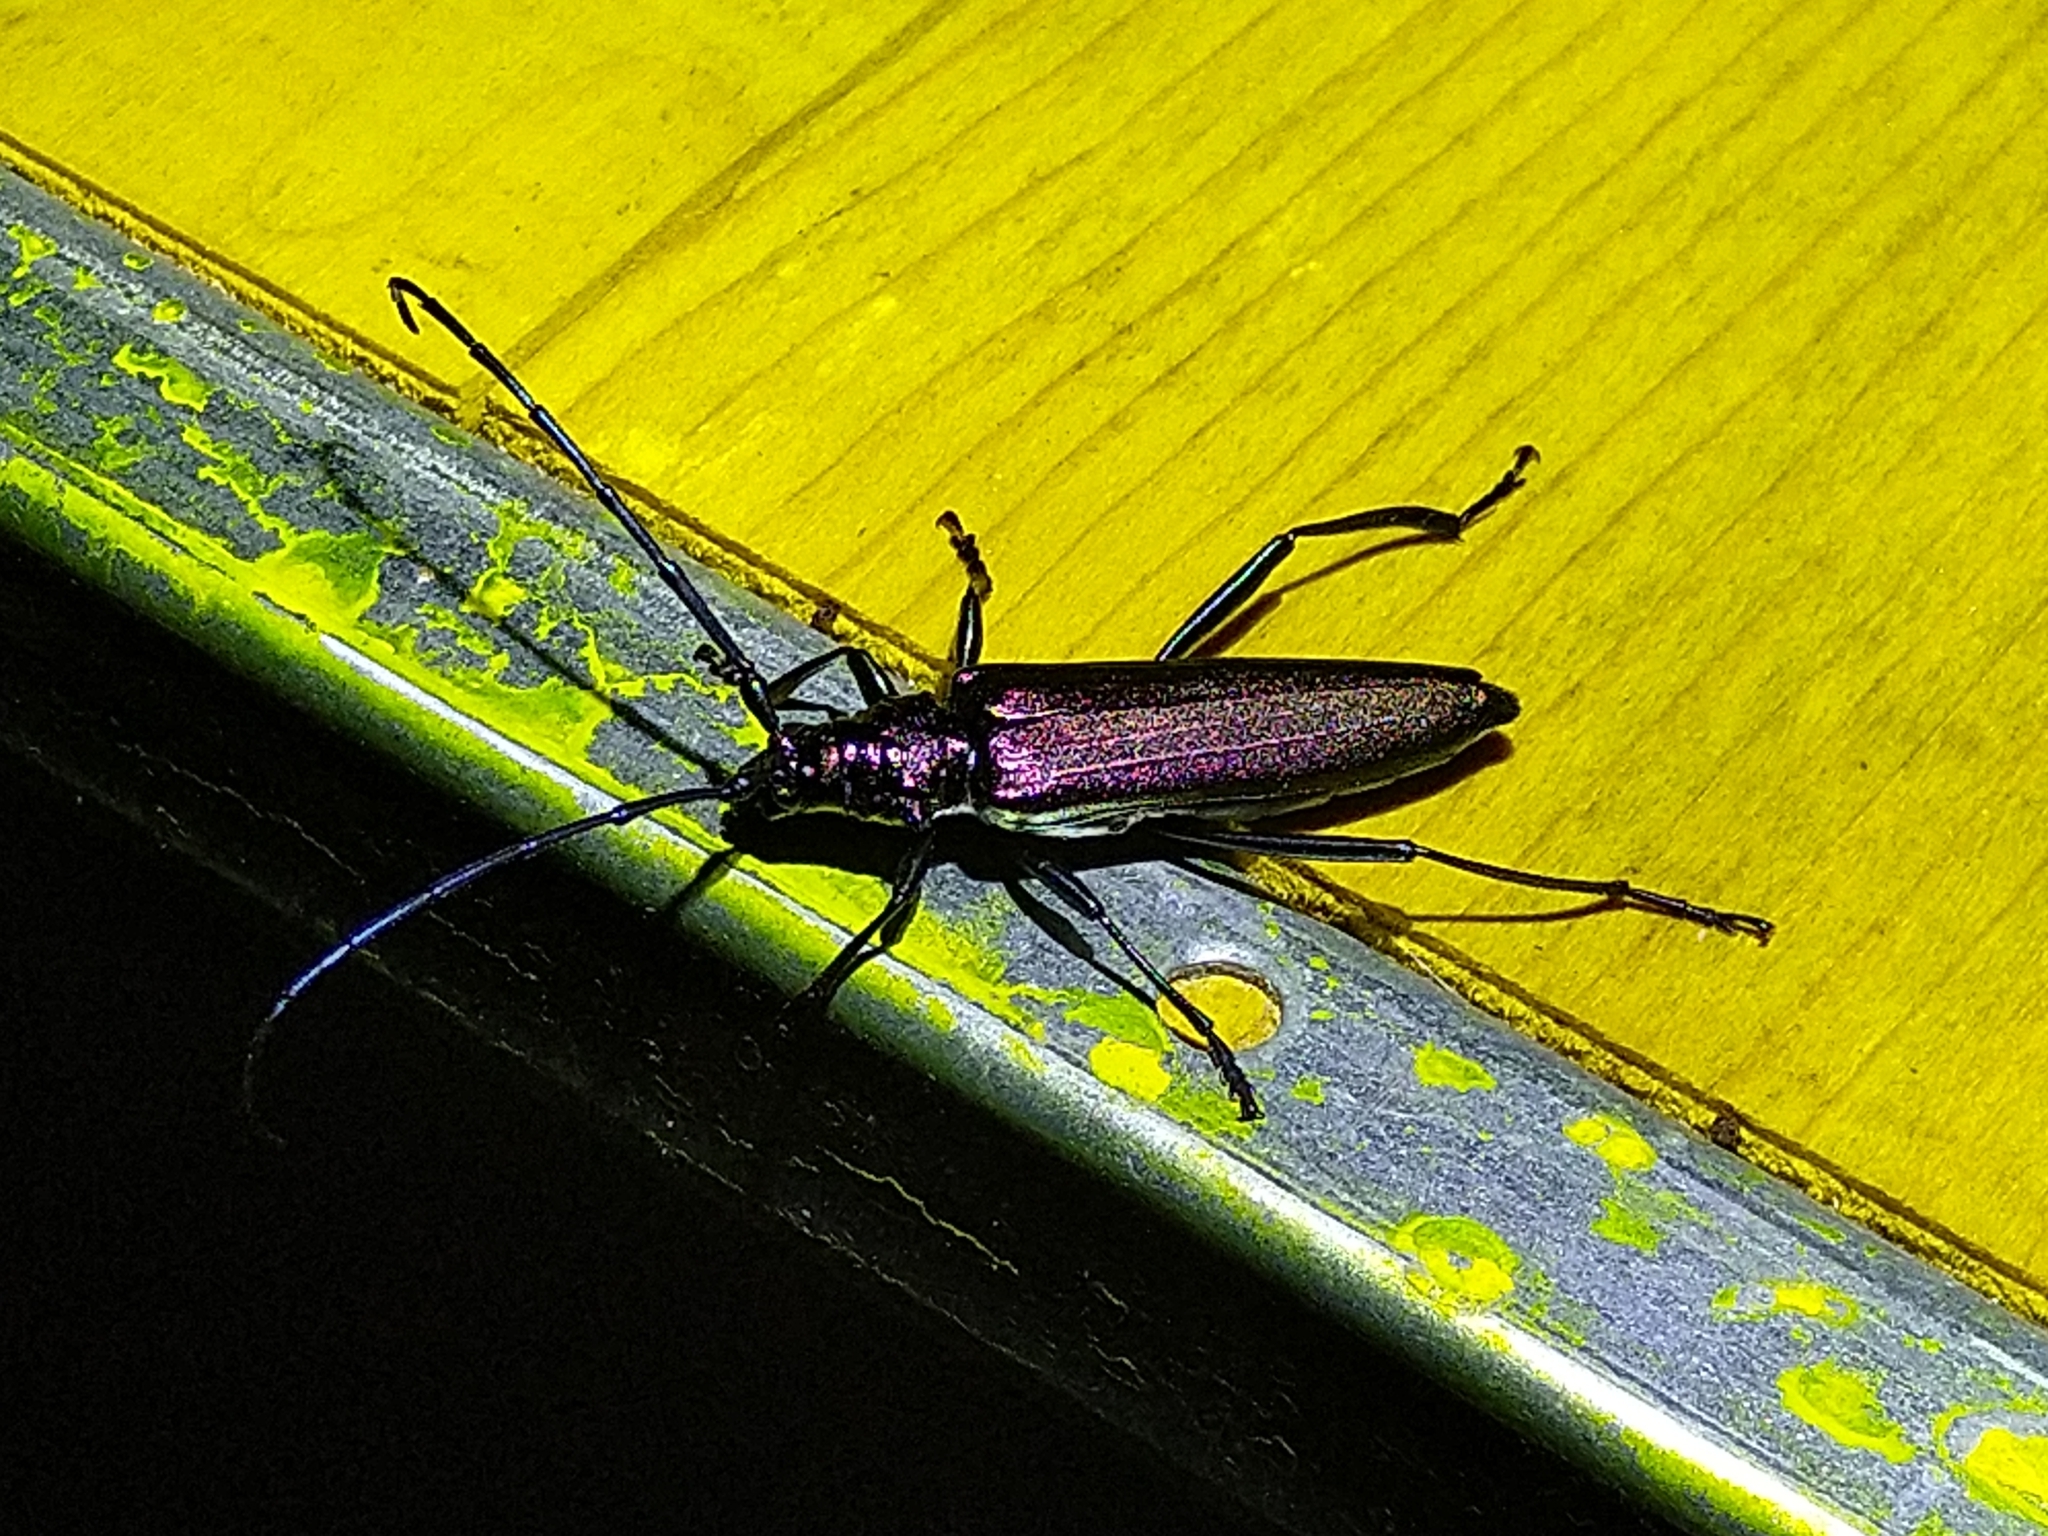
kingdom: Animalia
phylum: Arthropoda
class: Insecta
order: Coleoptera
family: Cerambycidae
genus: Aromia
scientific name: Aromia moschata
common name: Musk beetle
